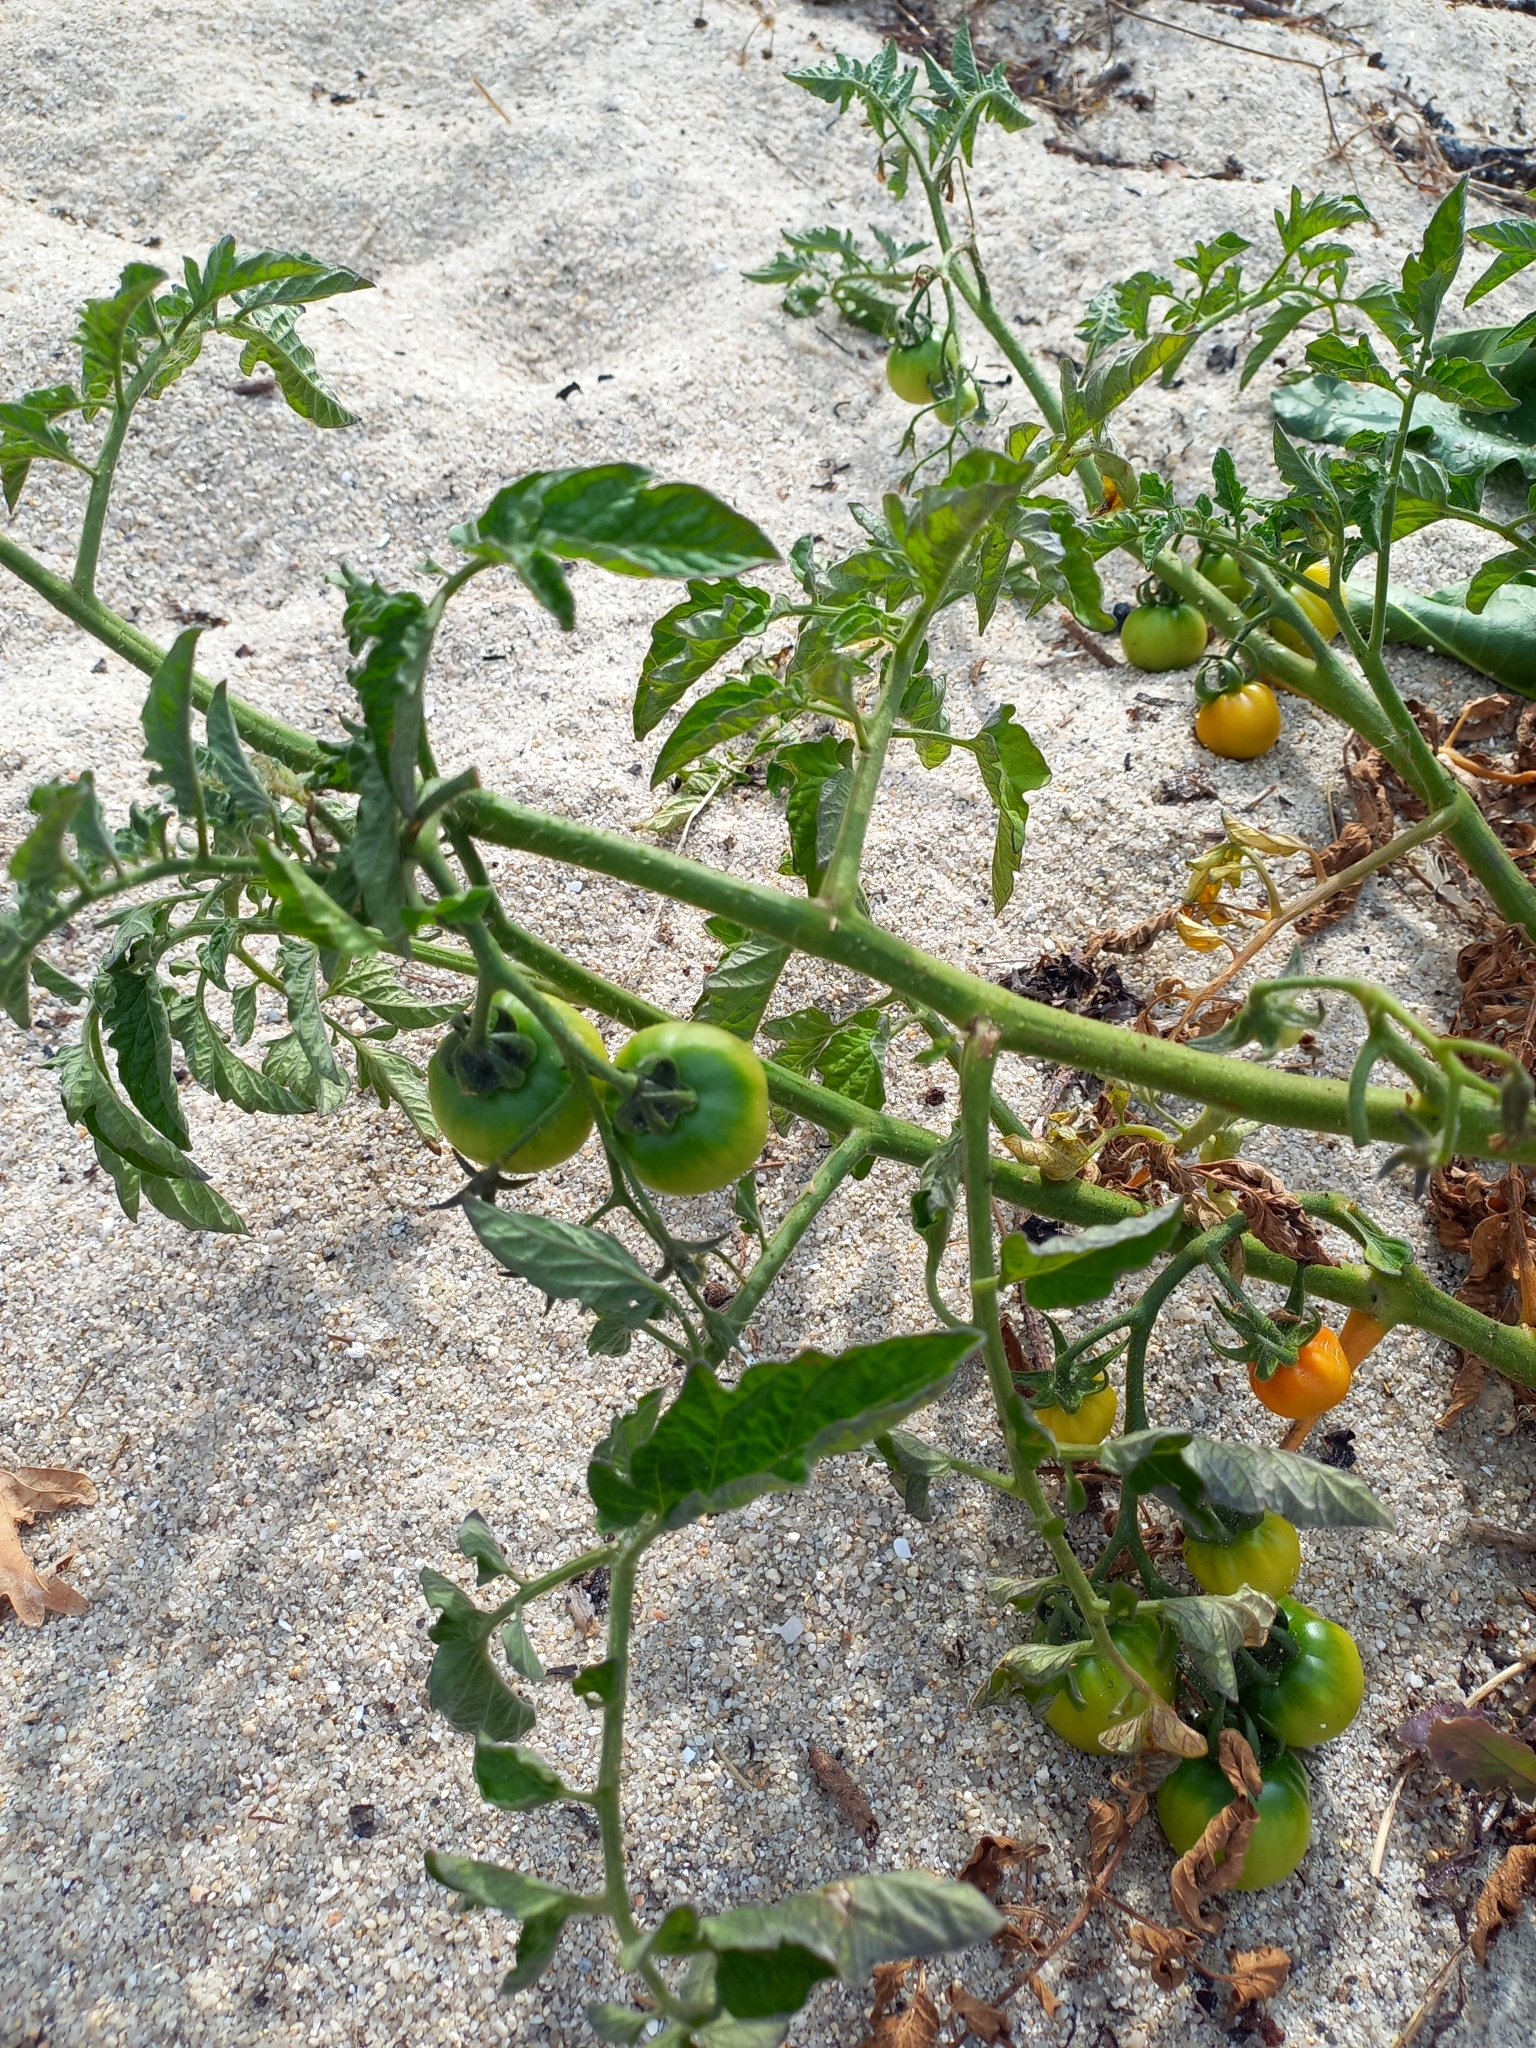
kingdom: Plantae
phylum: Tracheophyta
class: Magnoliopsida
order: Solanales
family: Solanaceae
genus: Solanum
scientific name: Solanum lycopersicum
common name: Garden tomato
